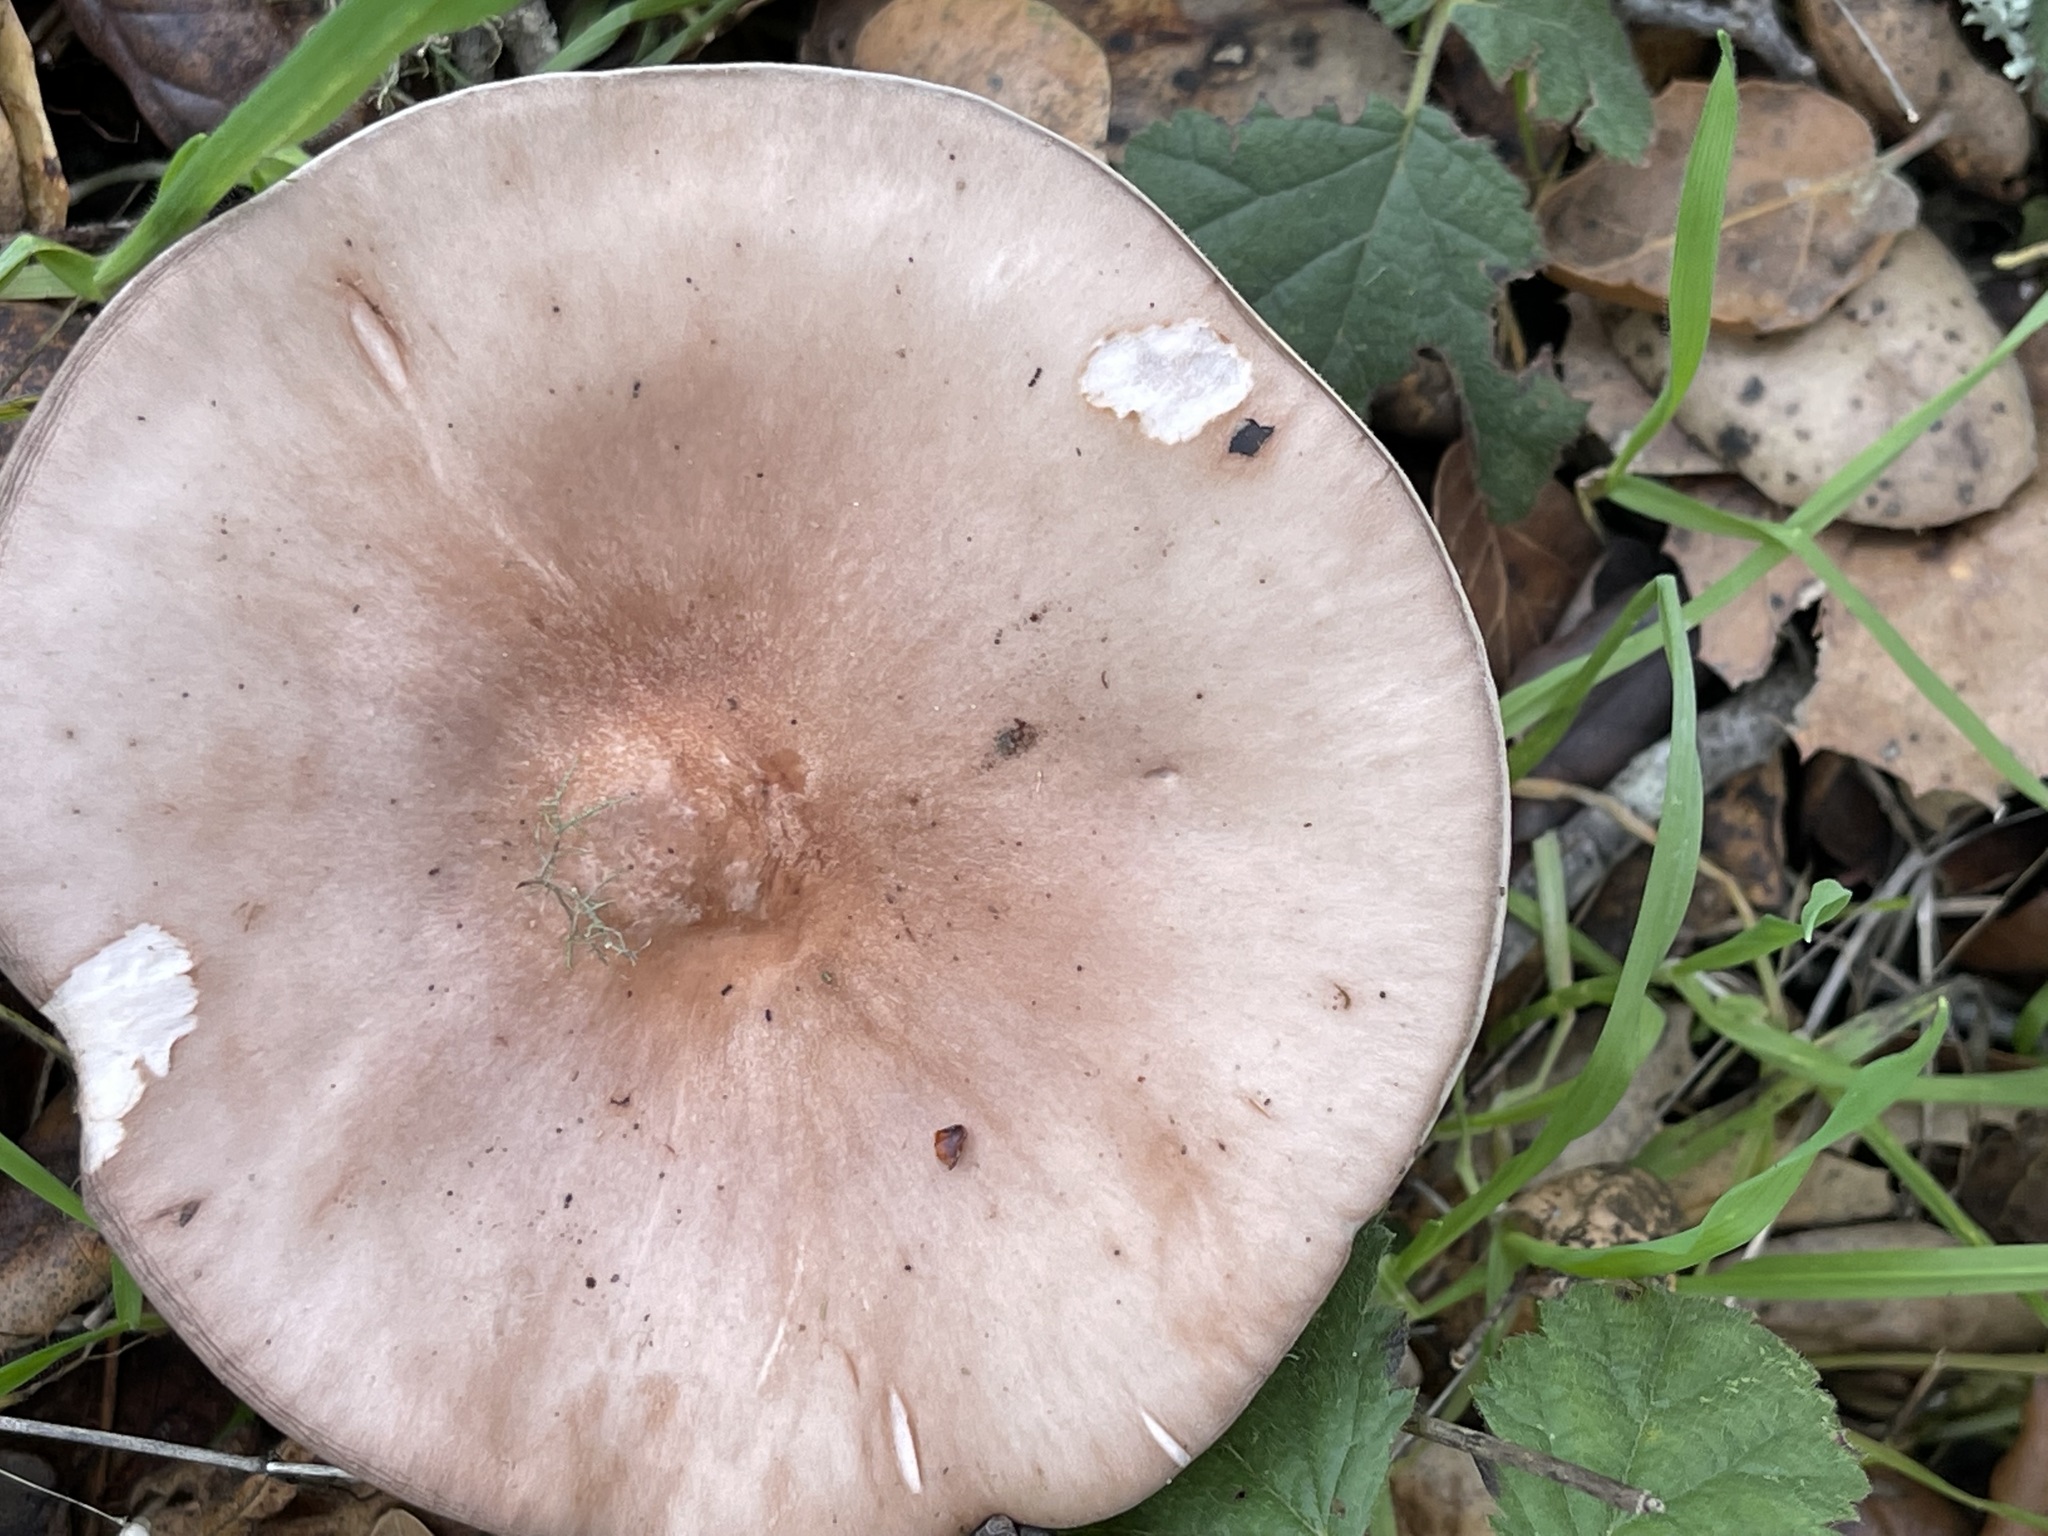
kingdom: Fungi
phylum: Basidiomycota
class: Agaricomycetes
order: Agaricales
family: Tricholomataceae
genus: Collybia
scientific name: Collybia
